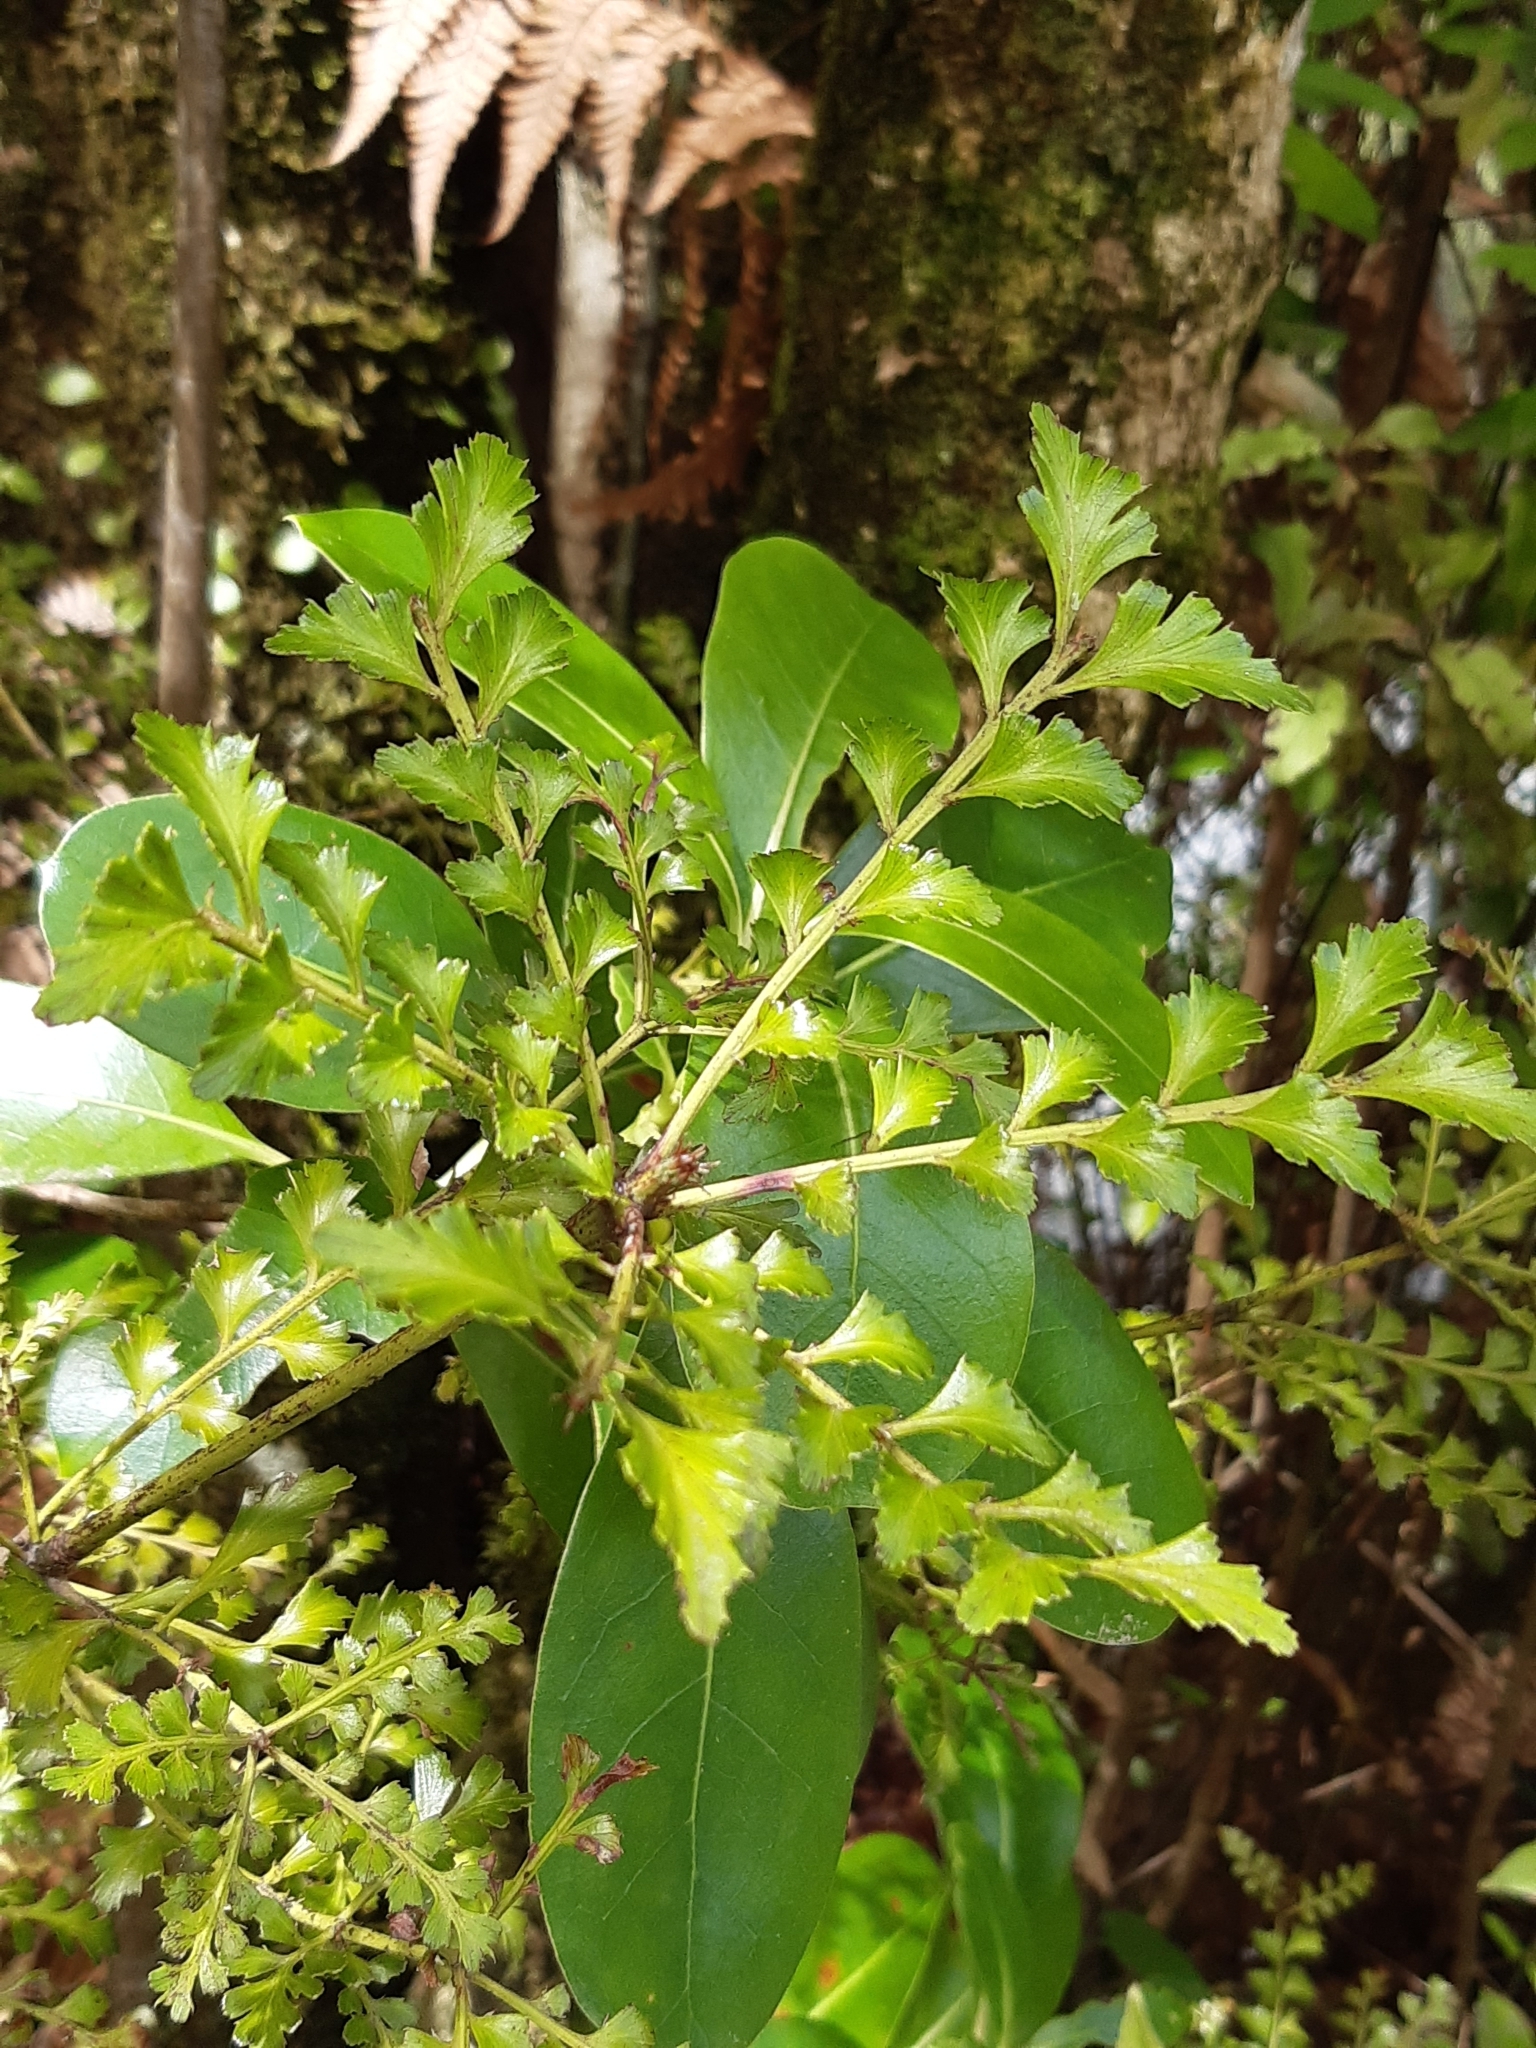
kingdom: Plantae
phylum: Tracheophyta
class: Pinopsida
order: Pinales
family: Phyllocladaceae
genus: Phyllocladus
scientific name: Phyllocladus trichomanoides
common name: Celery pine
